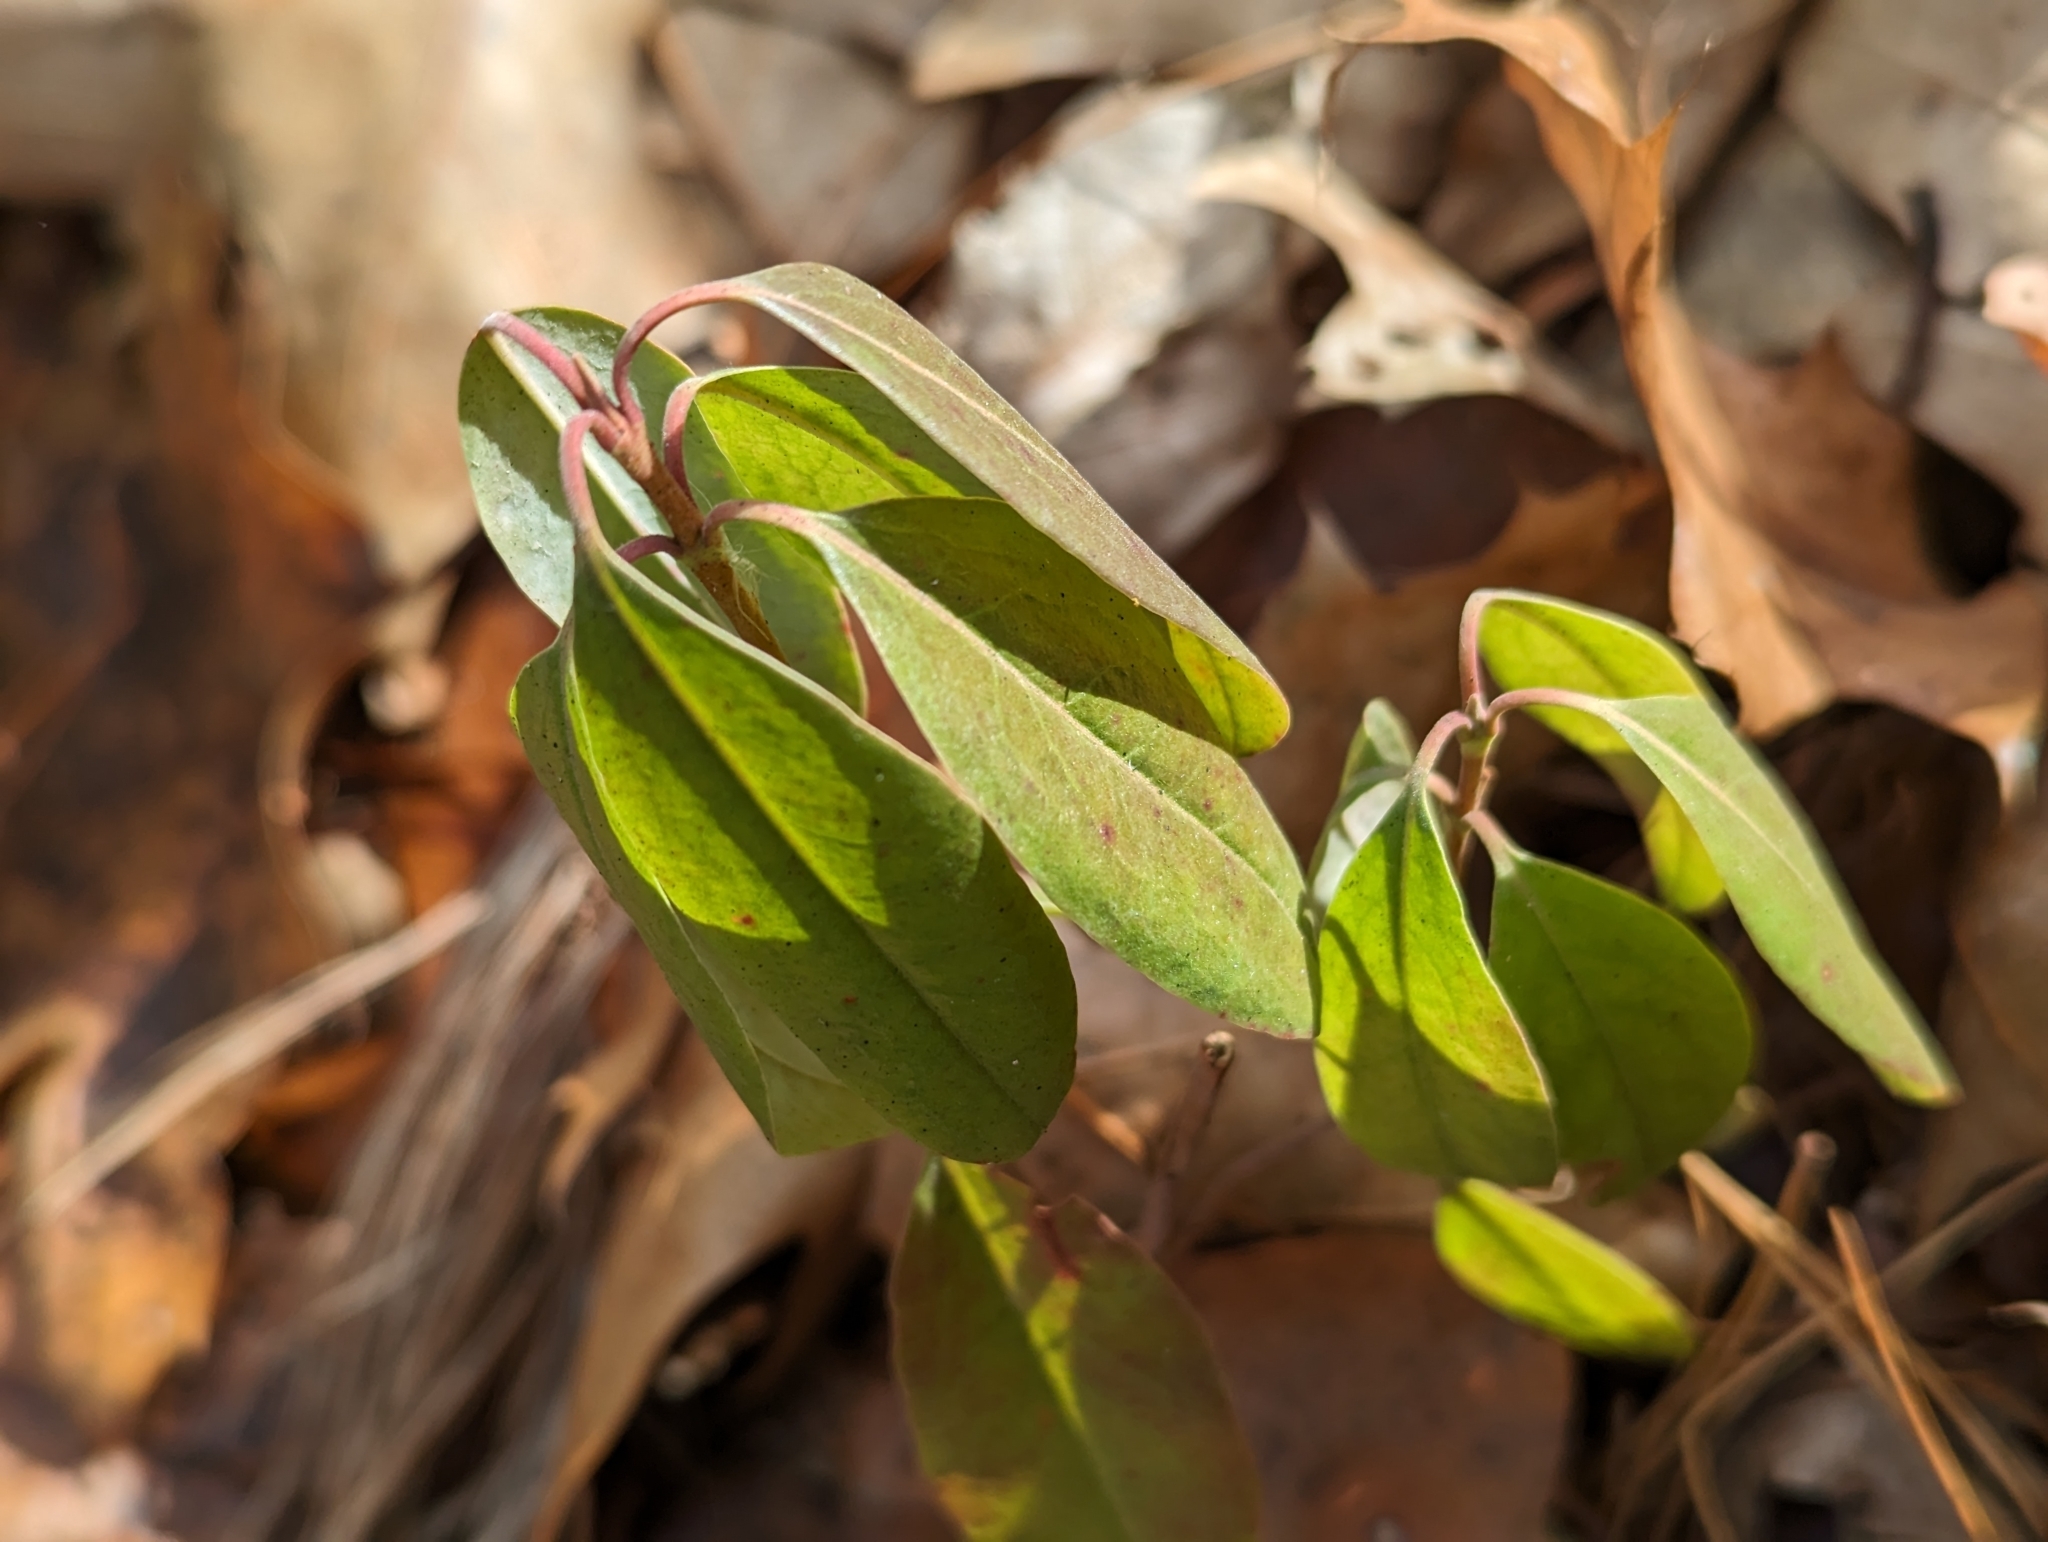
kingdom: Plantae
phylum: Tracheophyta
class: Magnoliopsida
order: Ericales
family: Ericaceae
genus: Kalmia
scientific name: Kalmia angustifolia
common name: Sheep-laurel
